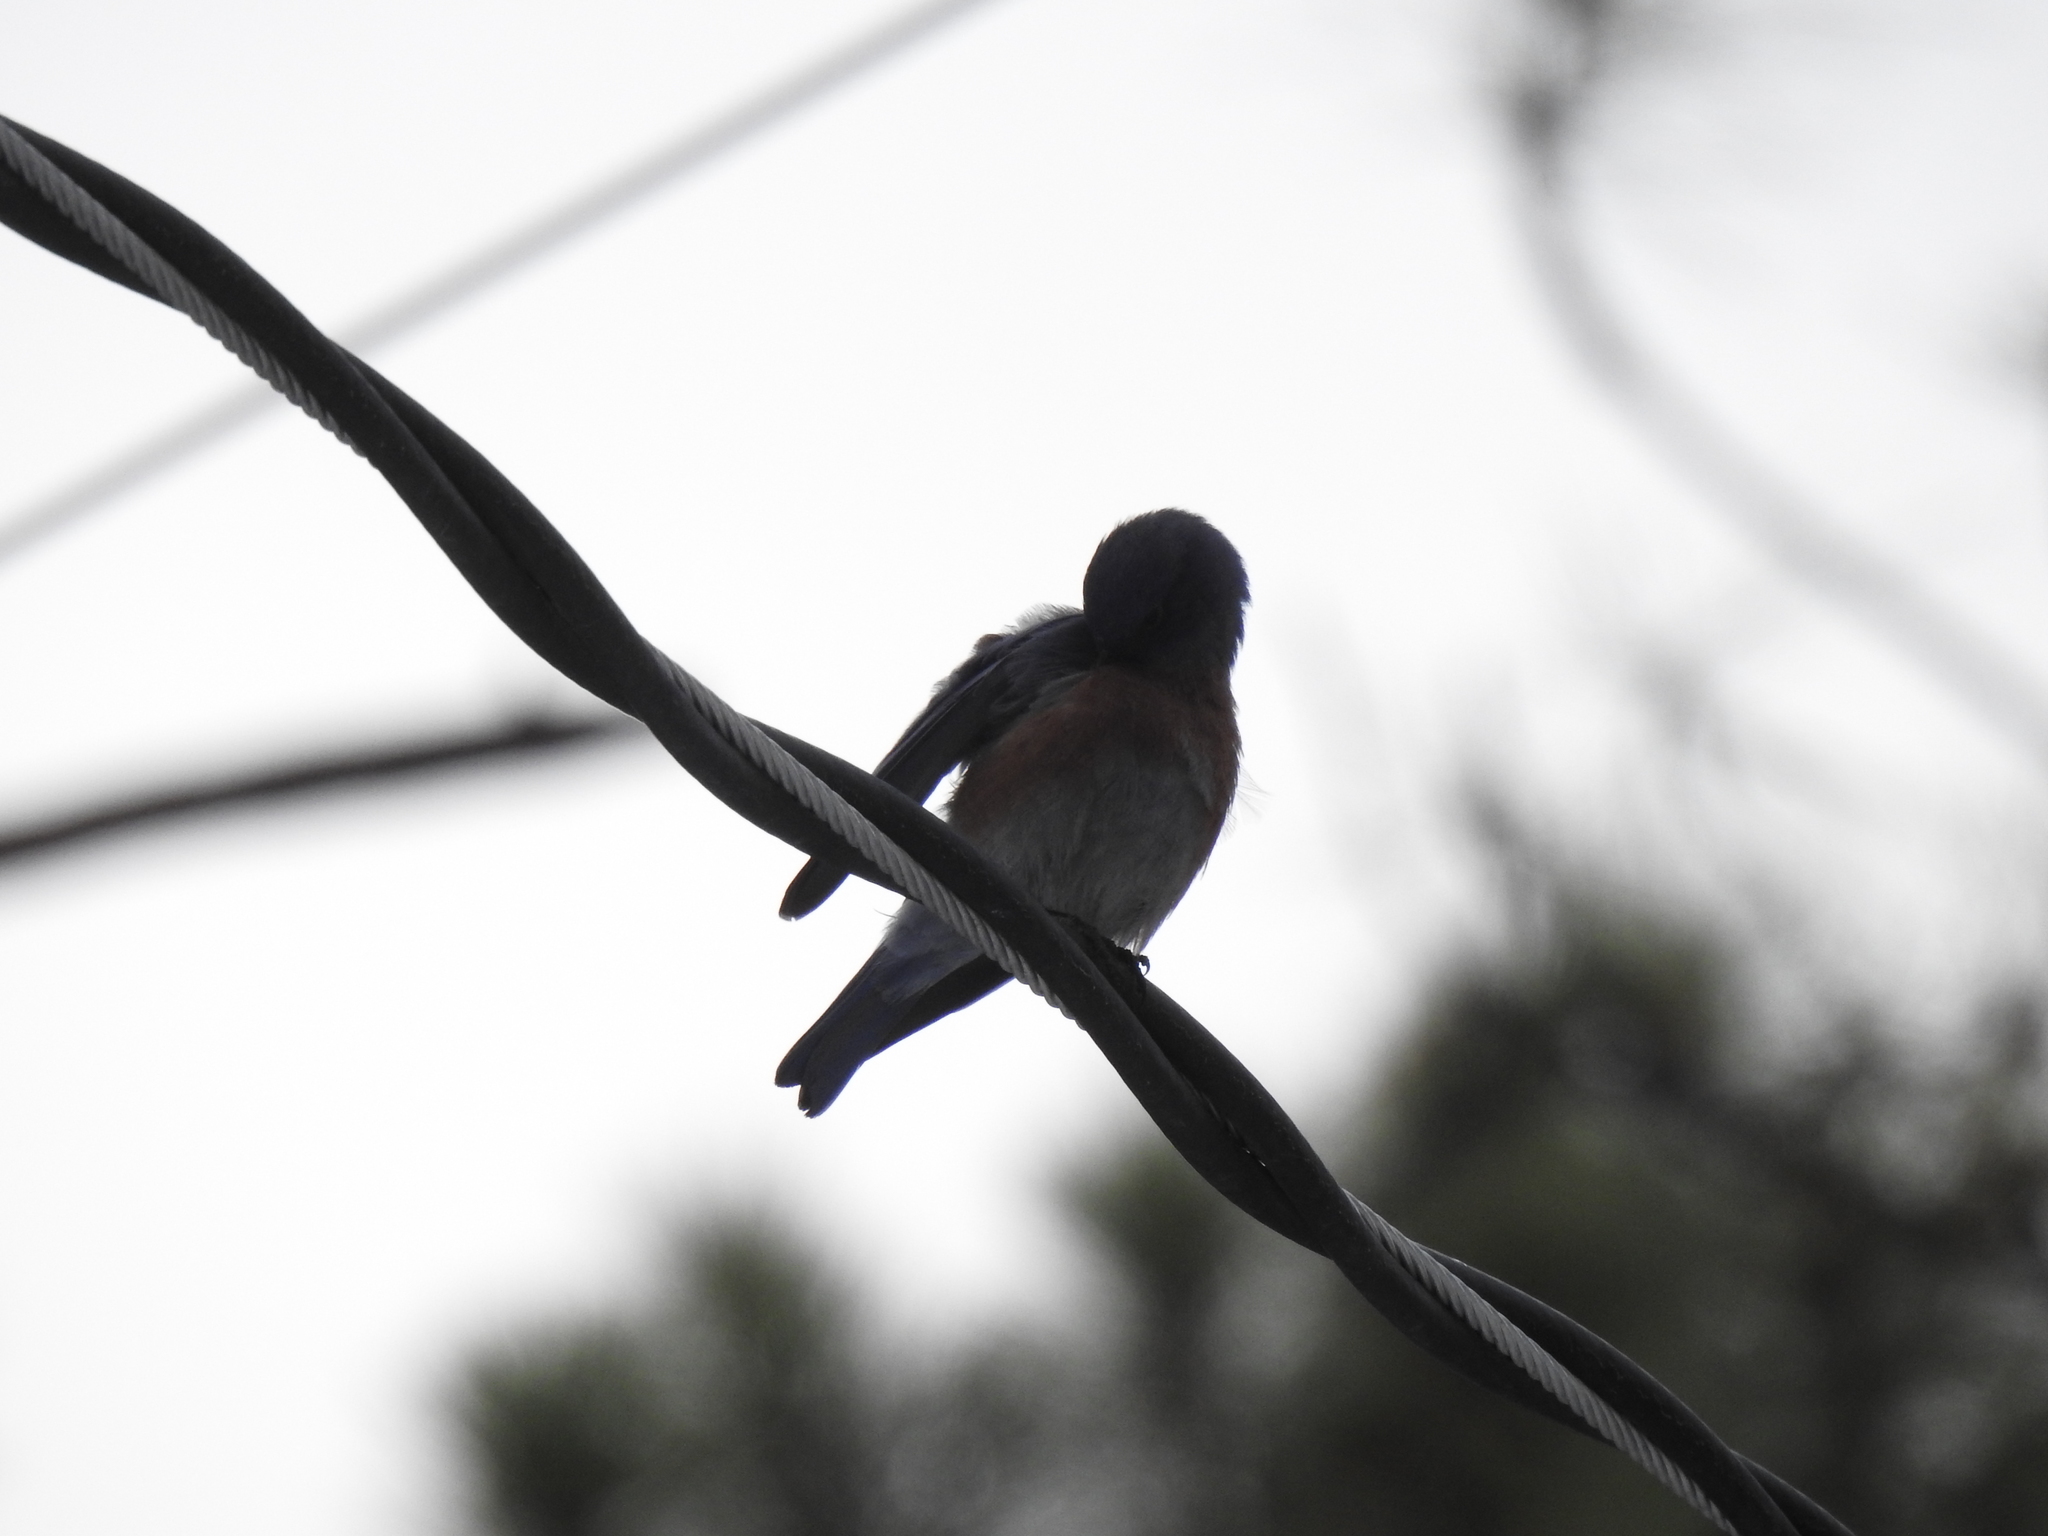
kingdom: Animalia
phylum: Chordata
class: Aves
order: Passeriformes
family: Turdidae
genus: Sialia
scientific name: Sialia mexicana
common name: Western bluebird
